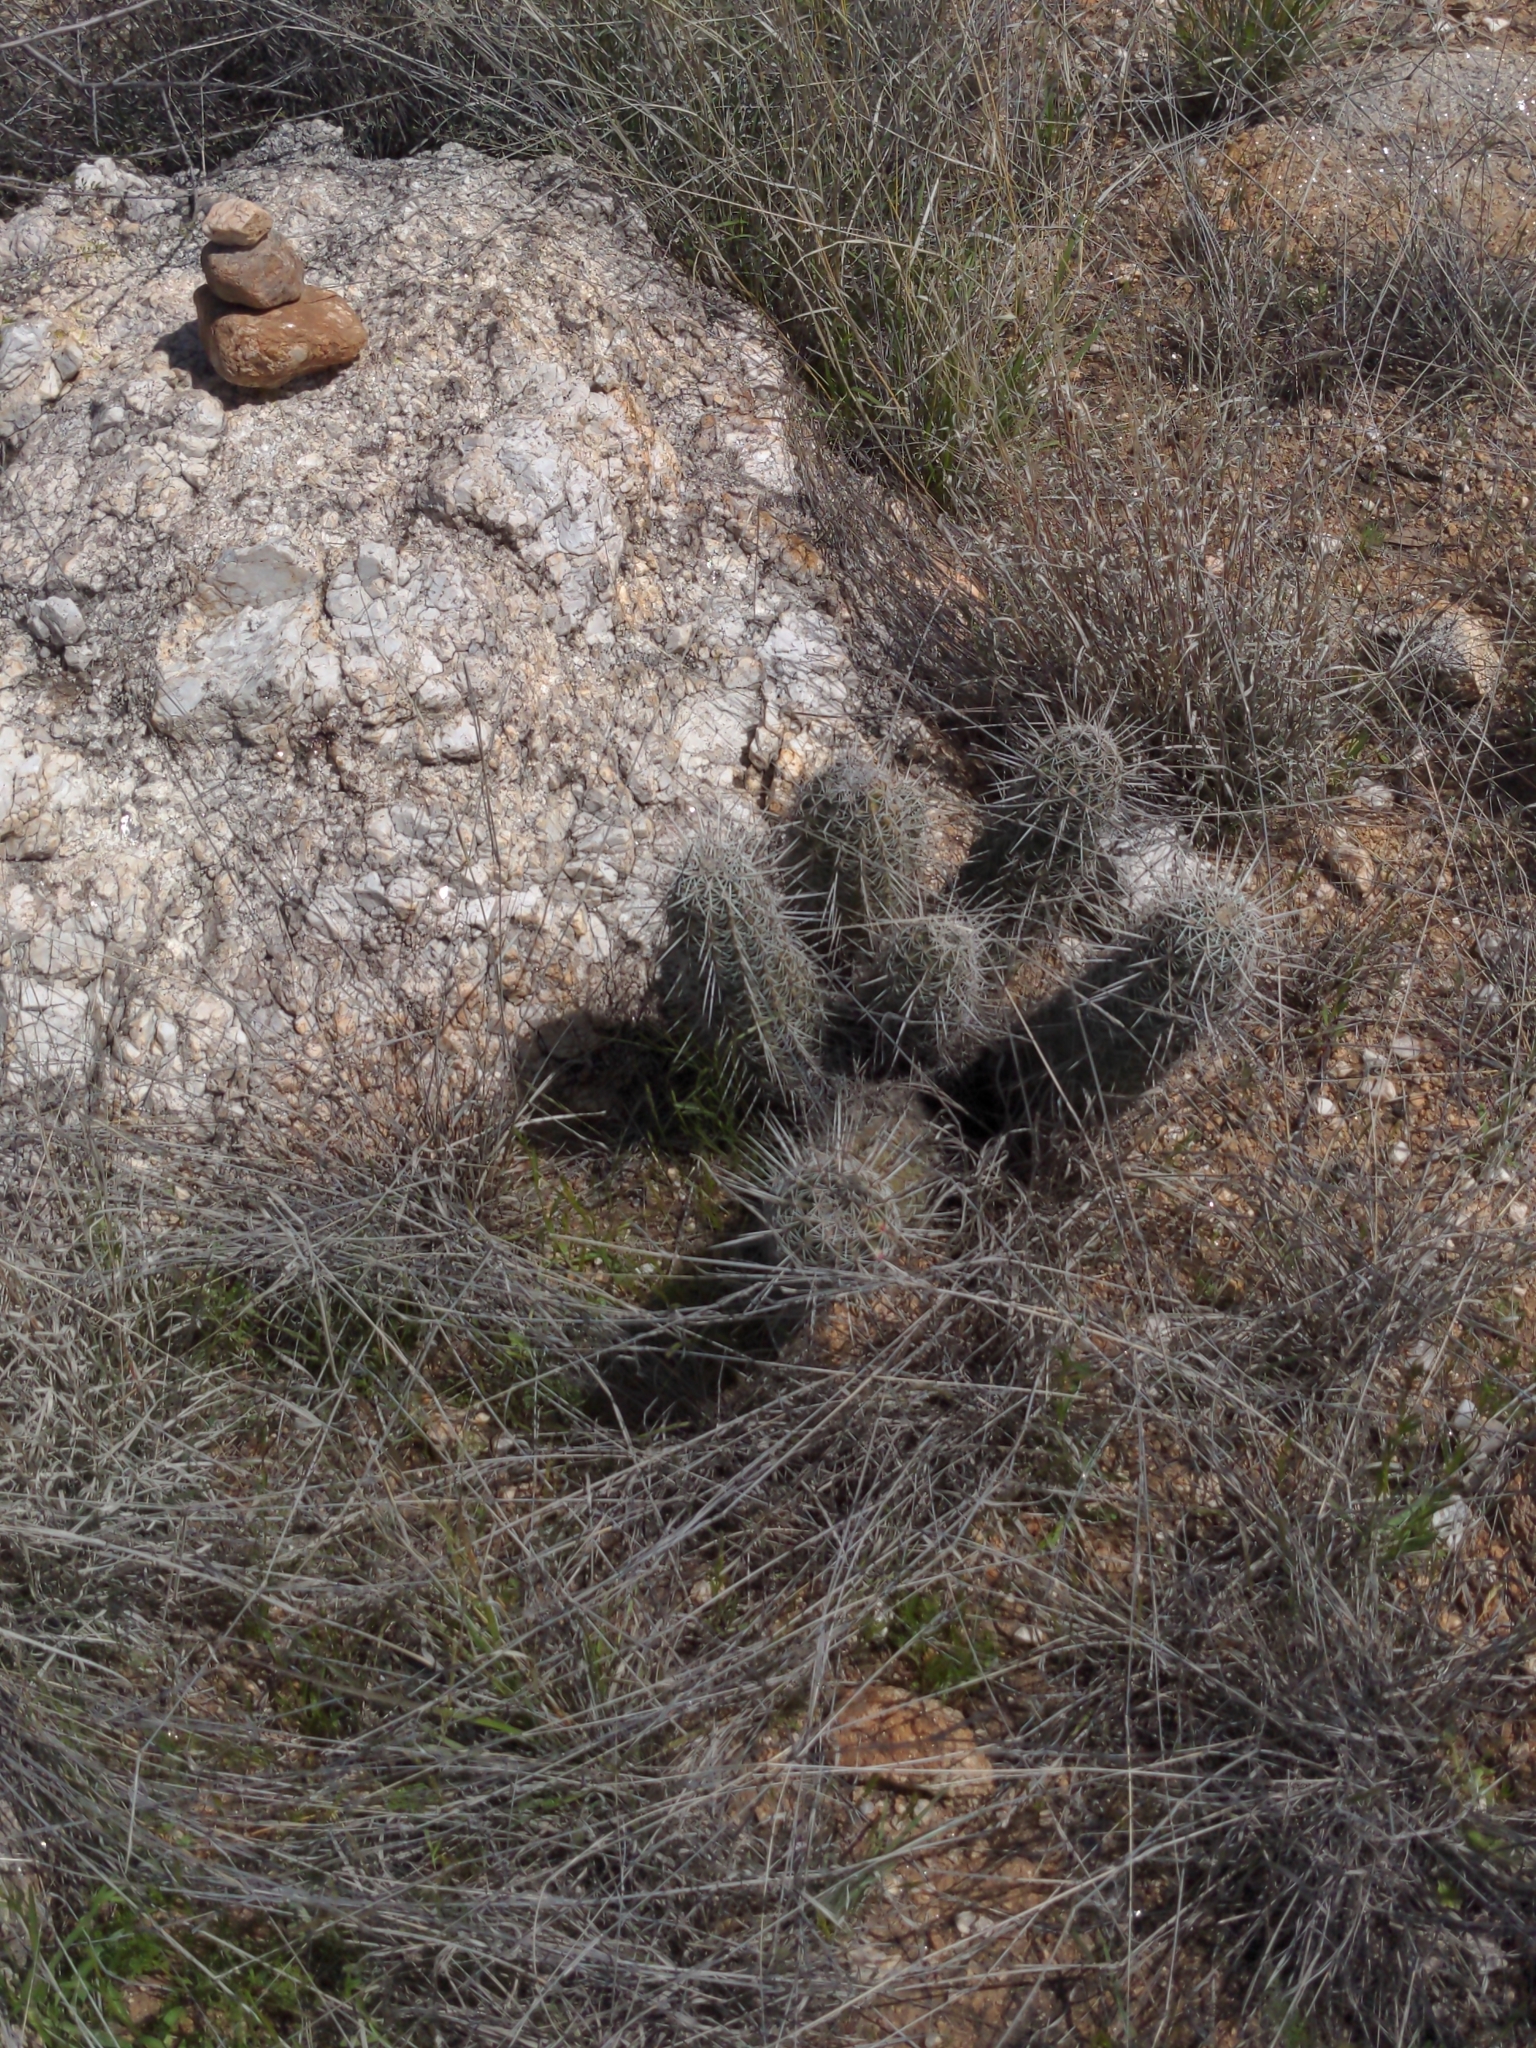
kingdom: Plantae
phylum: Tracheophyta
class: Magnoliopsida
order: Caryophyllales
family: Cactaceae
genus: Echinocereus
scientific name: Echinocereus fasciculatus
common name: Bundle hedgehog
